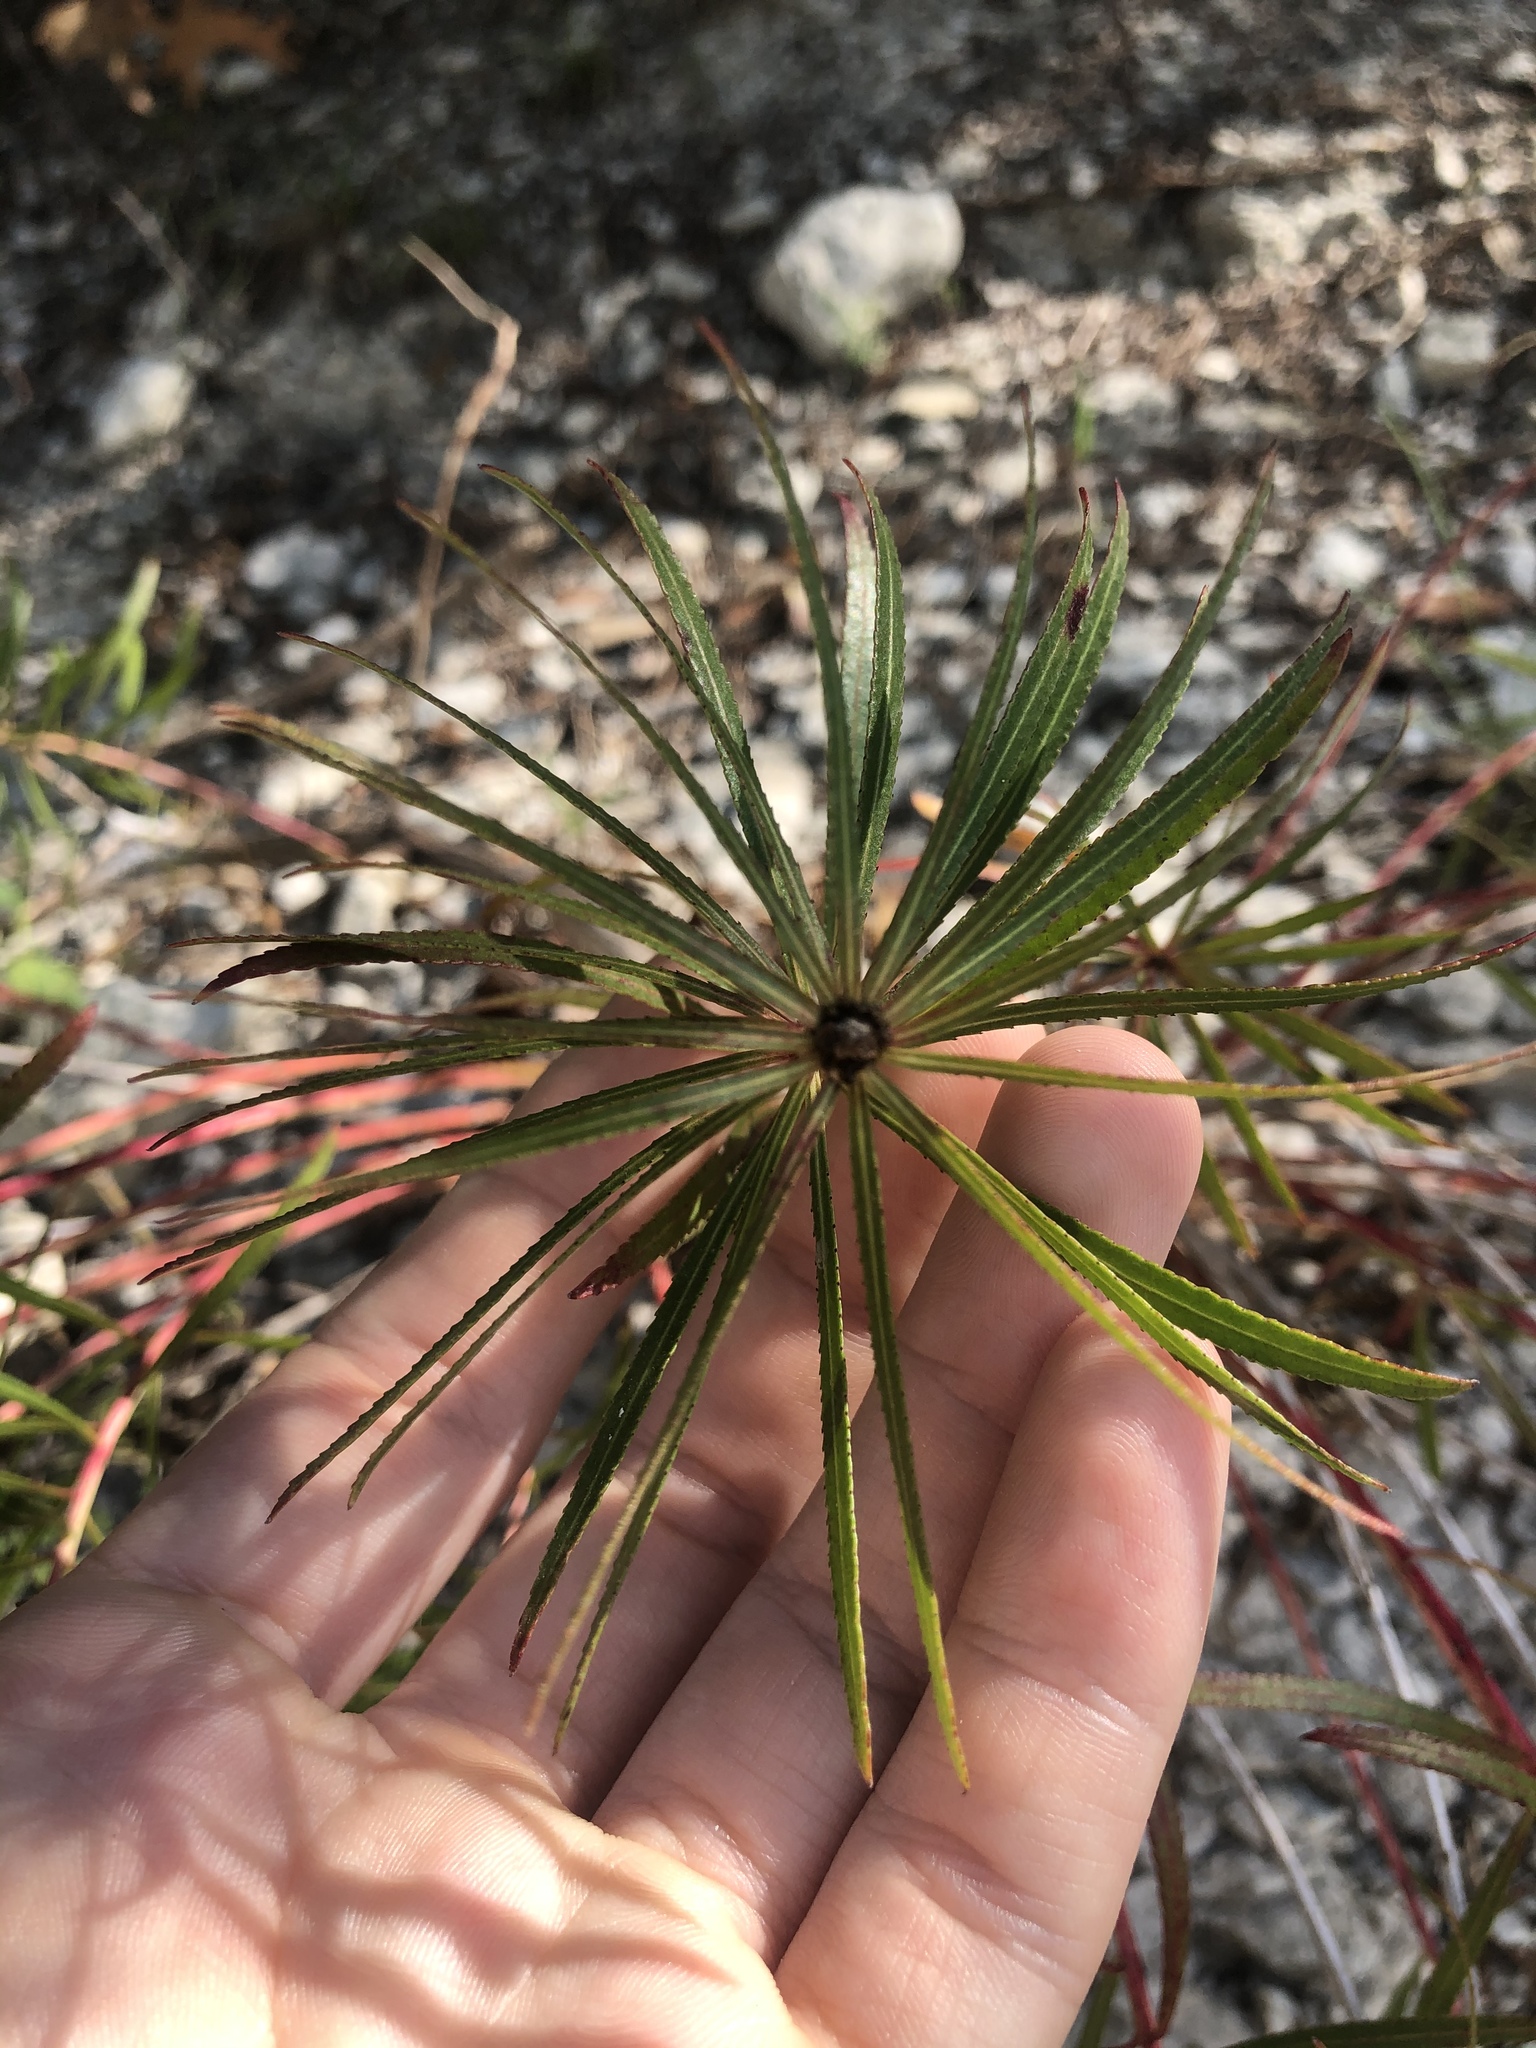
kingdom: Plantae
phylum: Tracheophyta
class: Magnoliopsida
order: Malpighiales
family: Euphorbiaceae
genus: Stillingia
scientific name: Stillingia texana
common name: Texas stillingia
